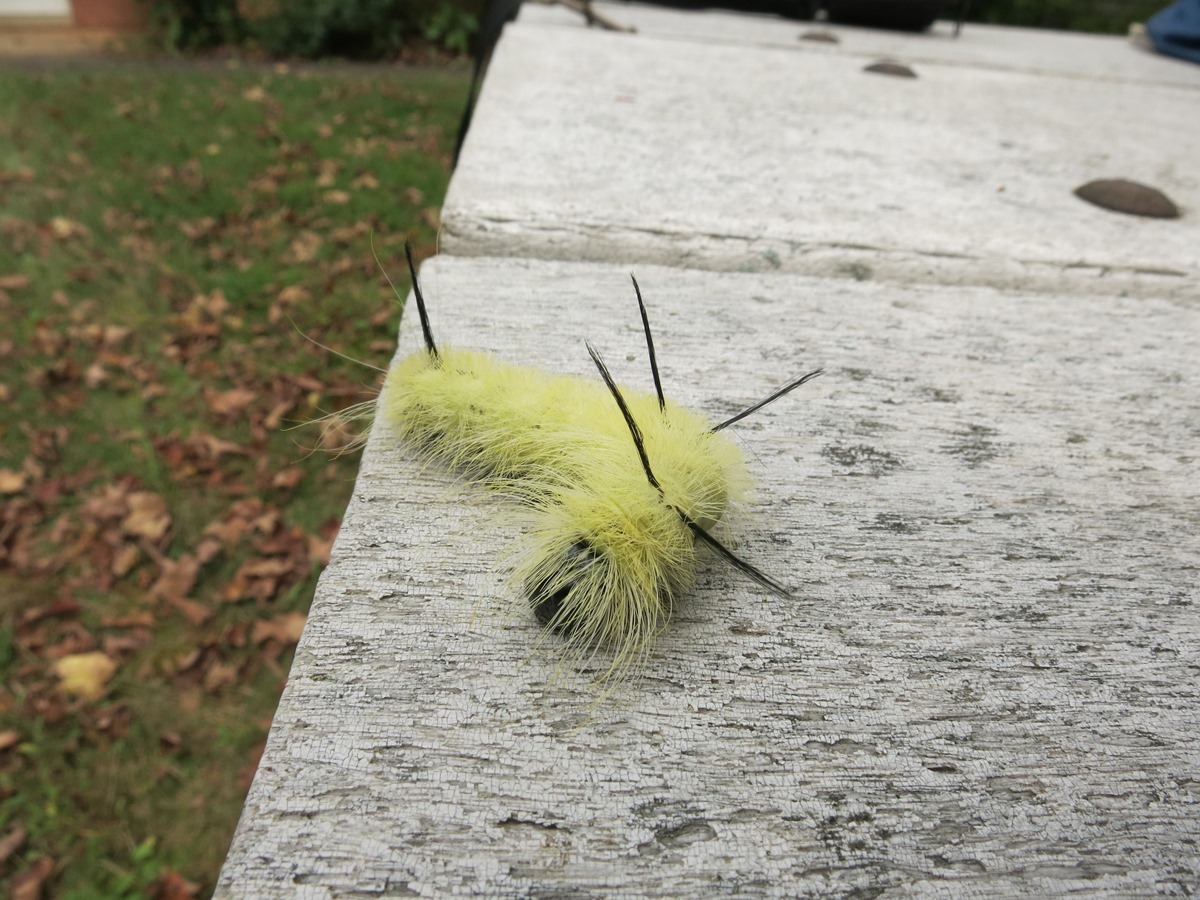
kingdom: Animalia
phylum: Arthropoda
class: Insecta
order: Lepidoptera
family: Noctuidae
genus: Acronicta
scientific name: Acronicta americana
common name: American dagger
